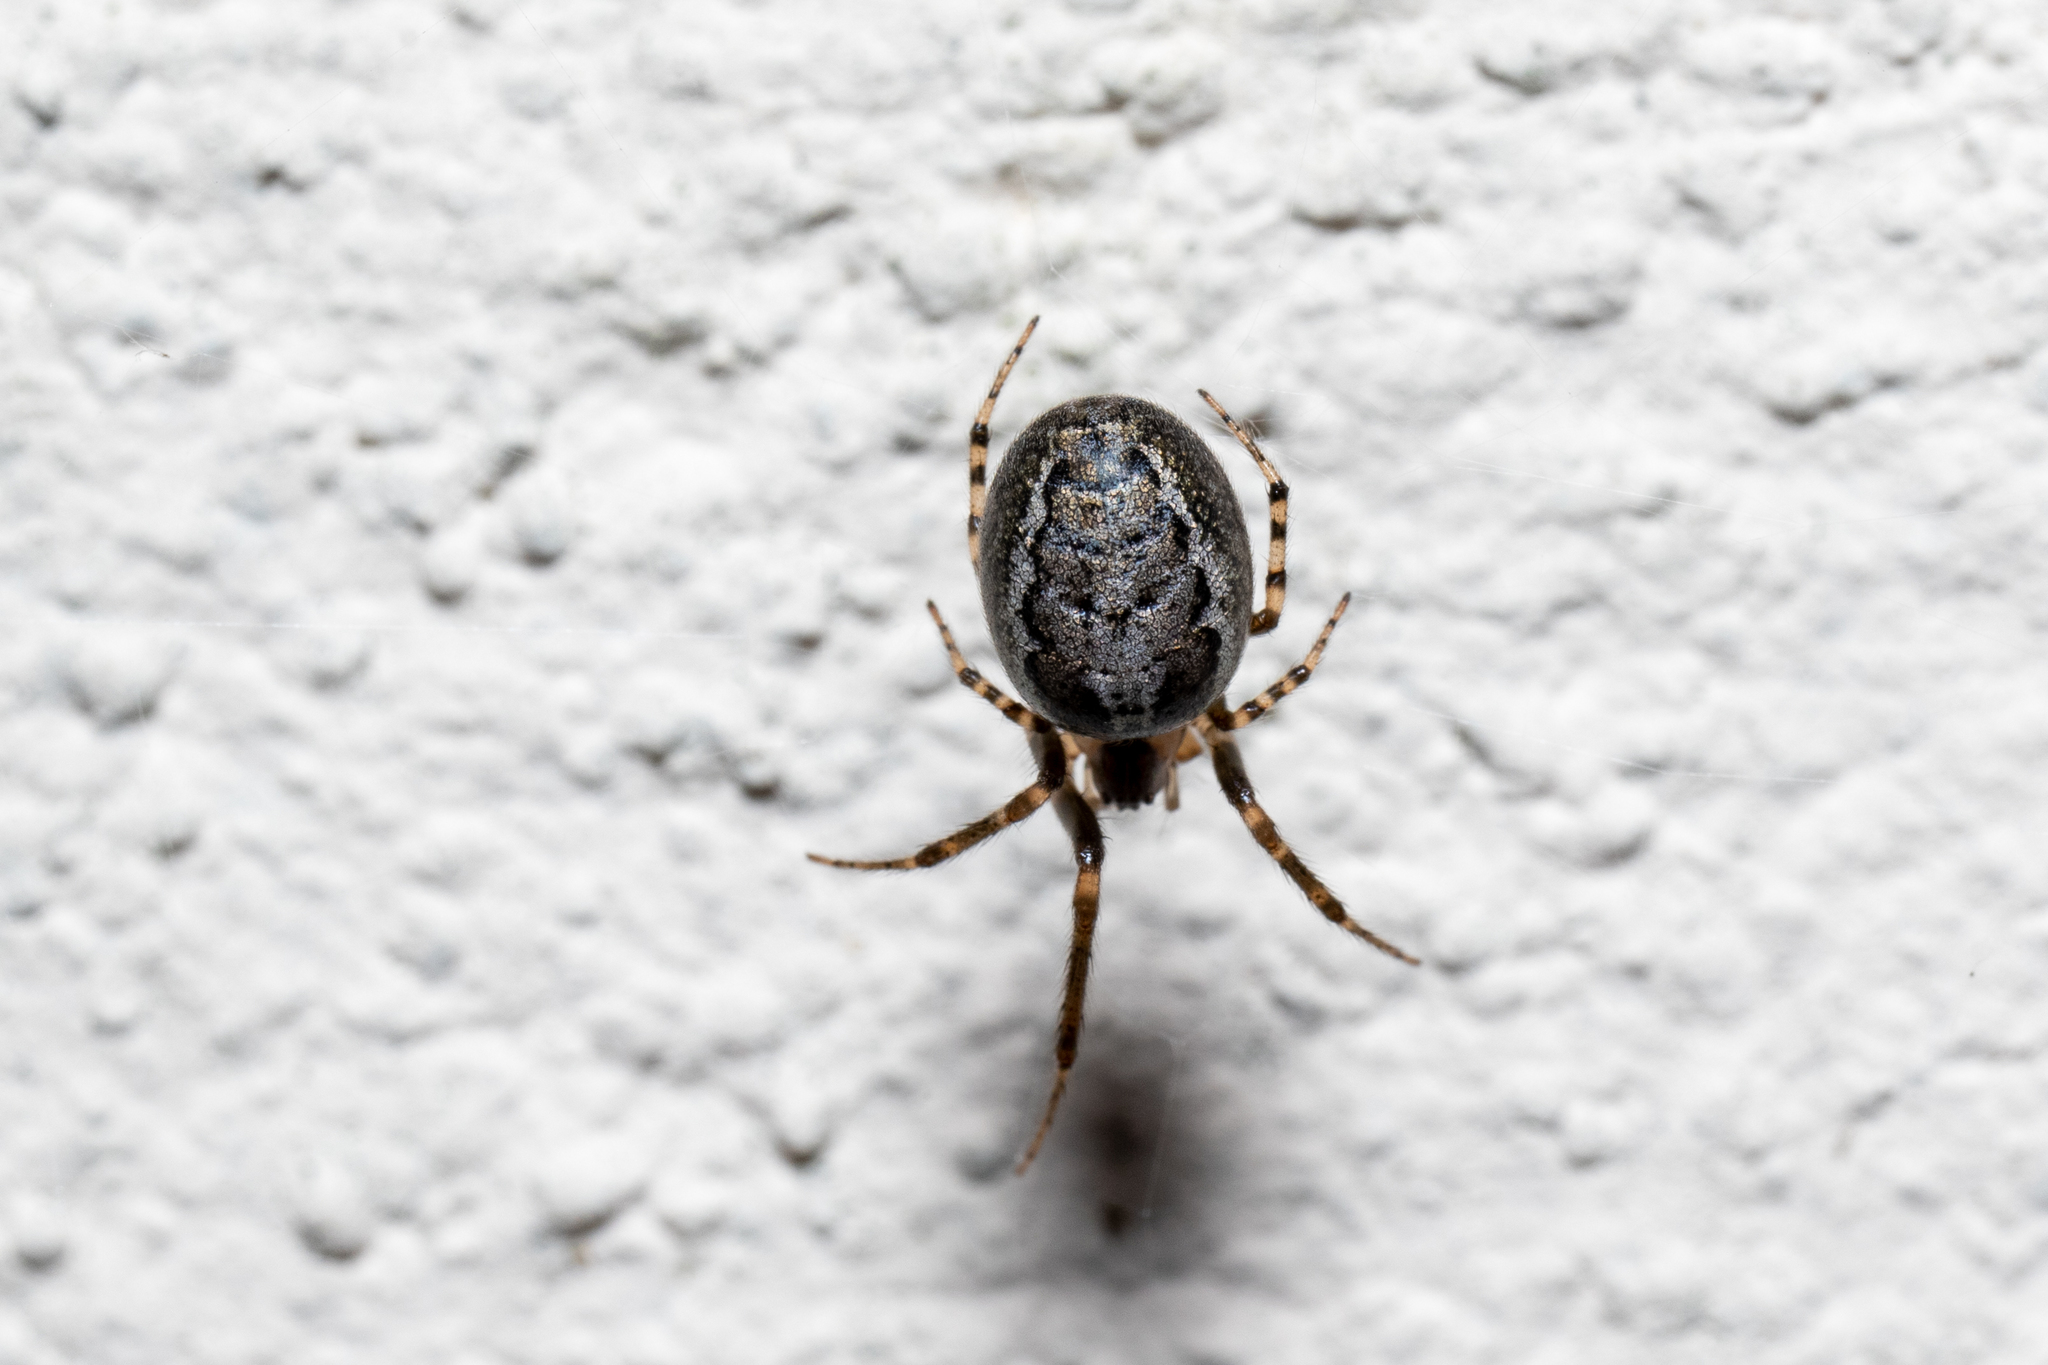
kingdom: Animalia
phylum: Arthropoda
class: Arachnida
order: Araneae
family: Araneidae
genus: Zygiella
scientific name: Zygiella x-notata
